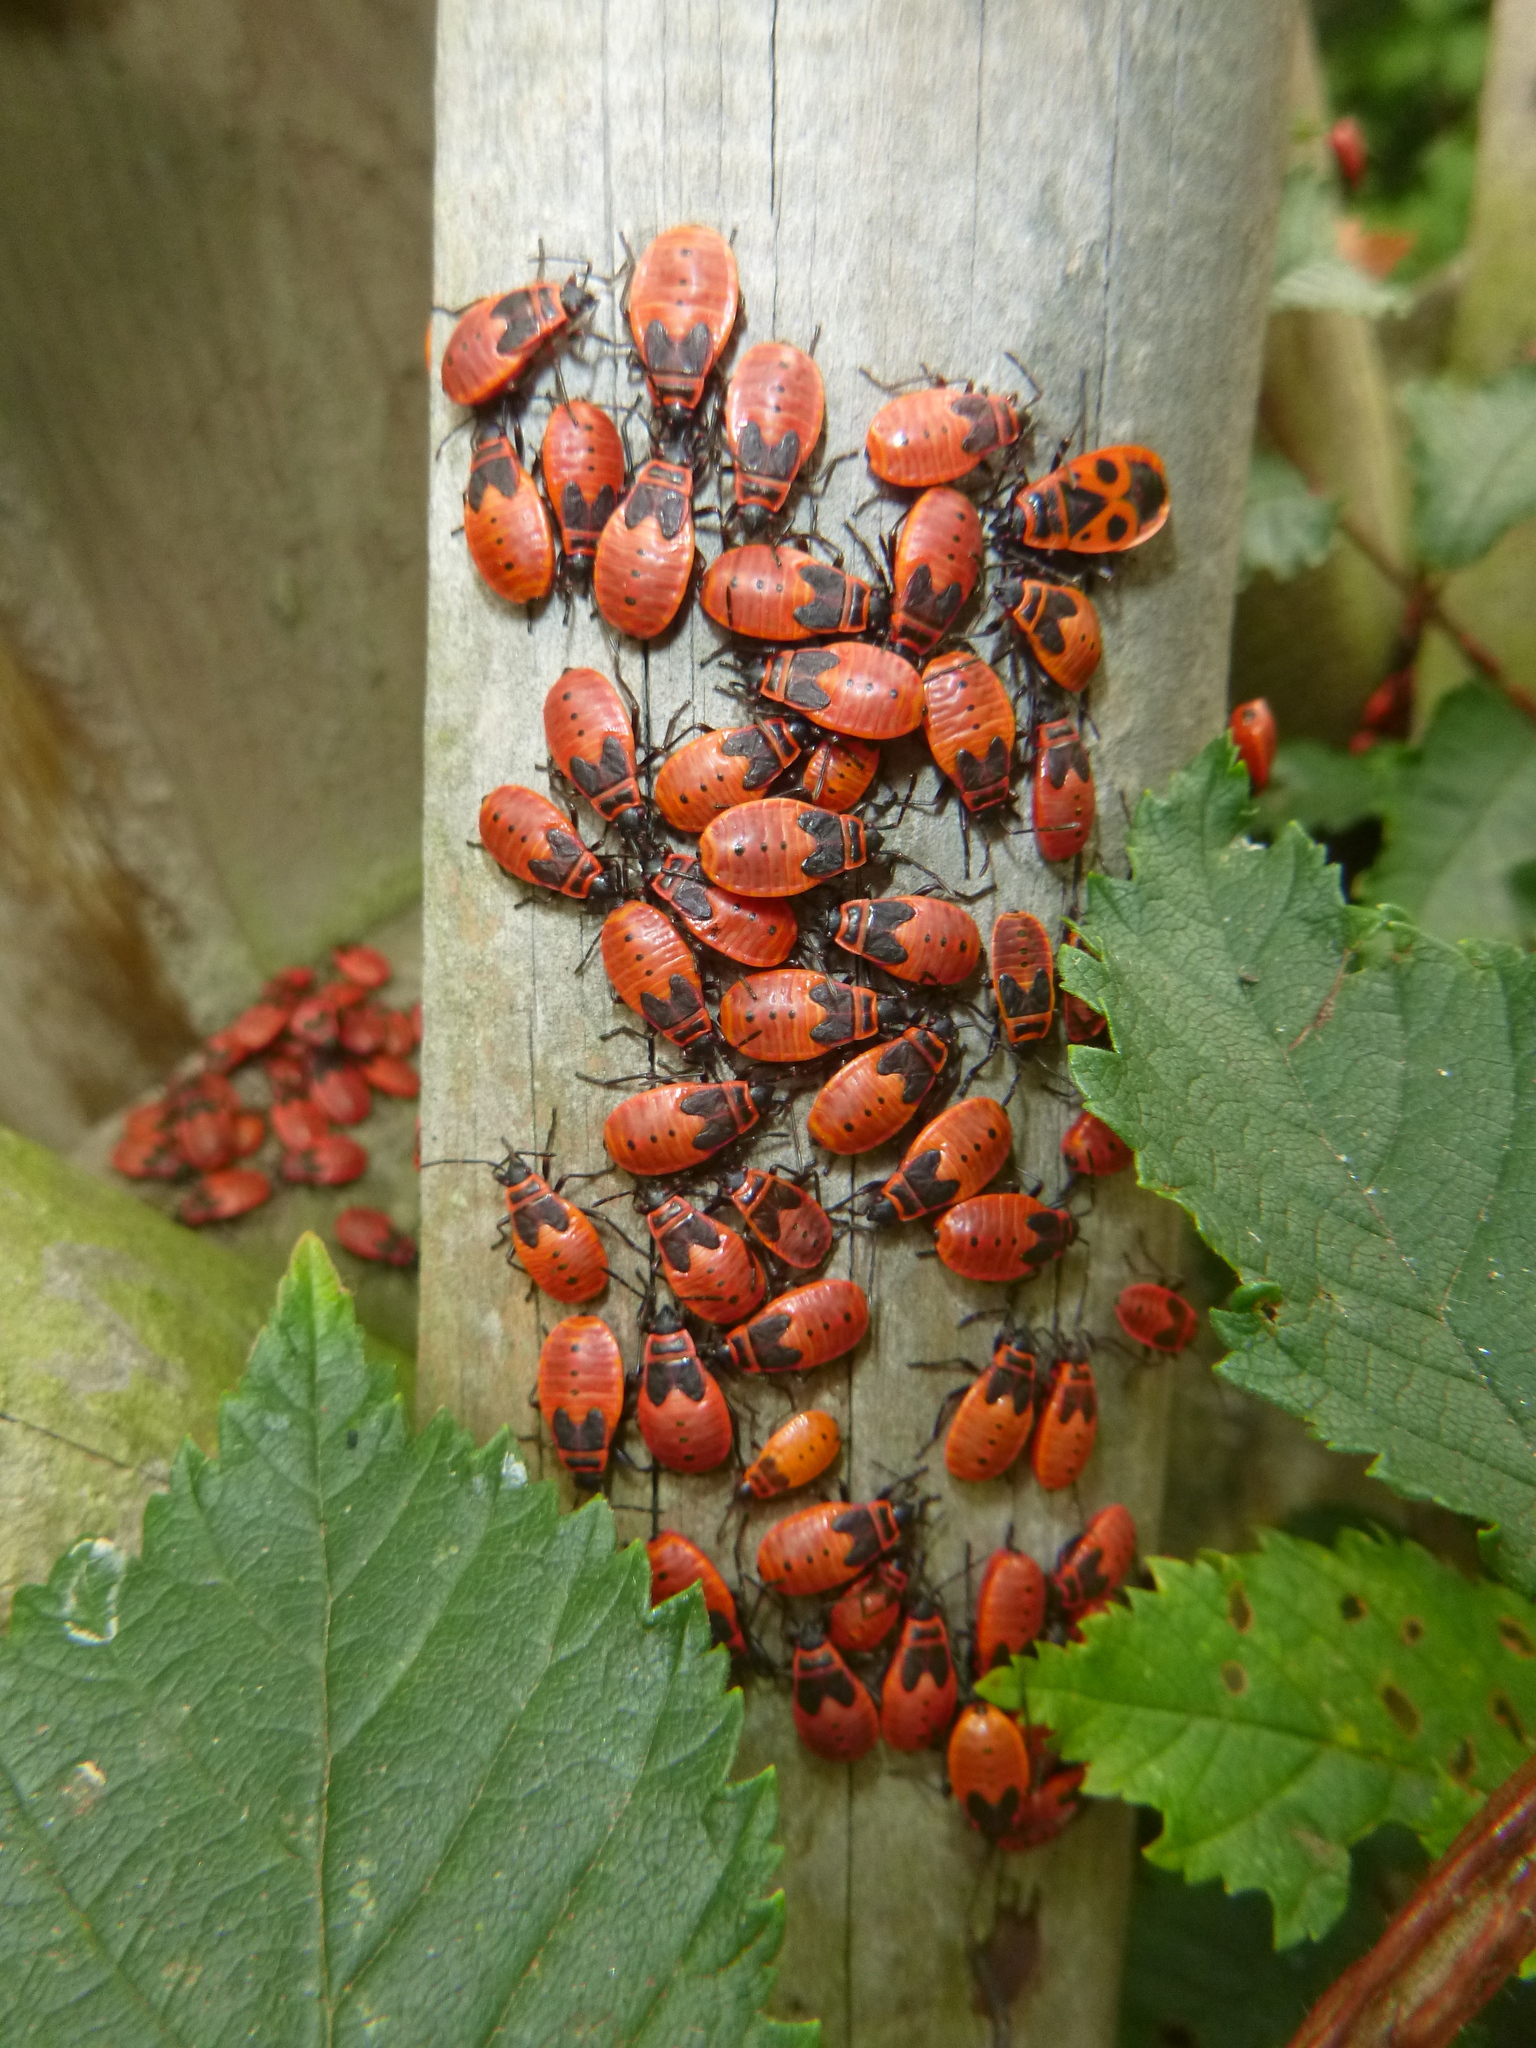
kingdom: Animalia
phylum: Arthropoda
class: Insecta
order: Hemiptera
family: Pyrrhocoridae
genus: Pyrrhocoris
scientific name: Pyrrhocoris apterus
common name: Firebug
